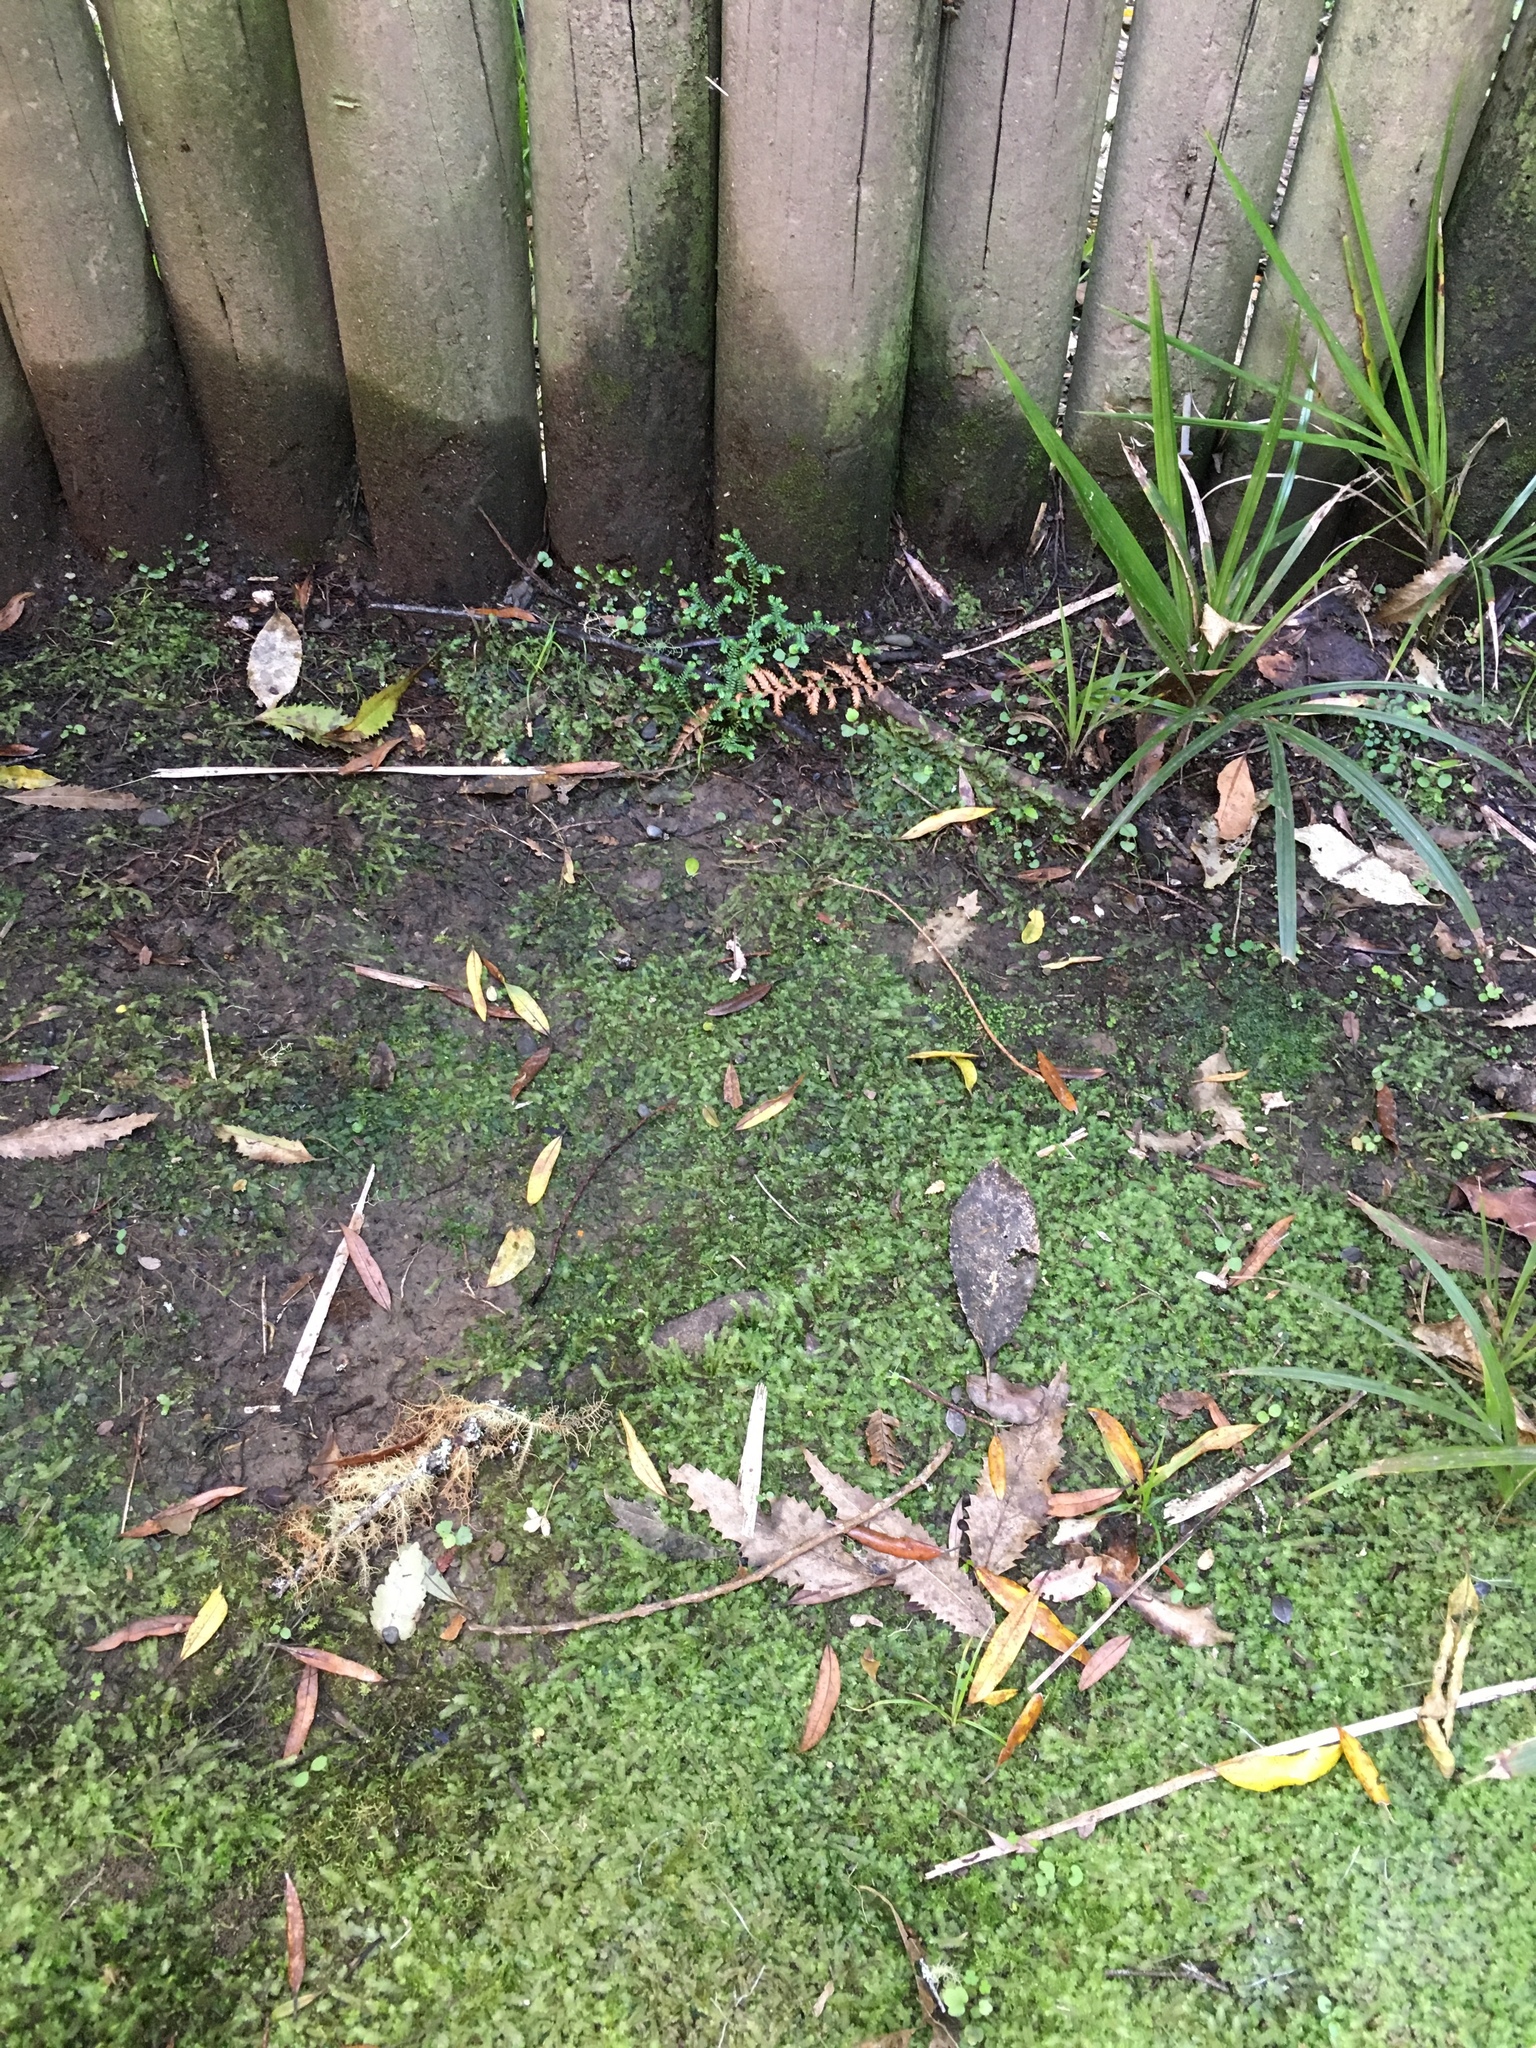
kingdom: Plantae
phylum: Tracheophyta
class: Lycopodiopsida
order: Selaginellales
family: Selaginellaceae
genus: Selaginella
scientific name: Selaginella kraussiana
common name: Krauss' spikemoss
